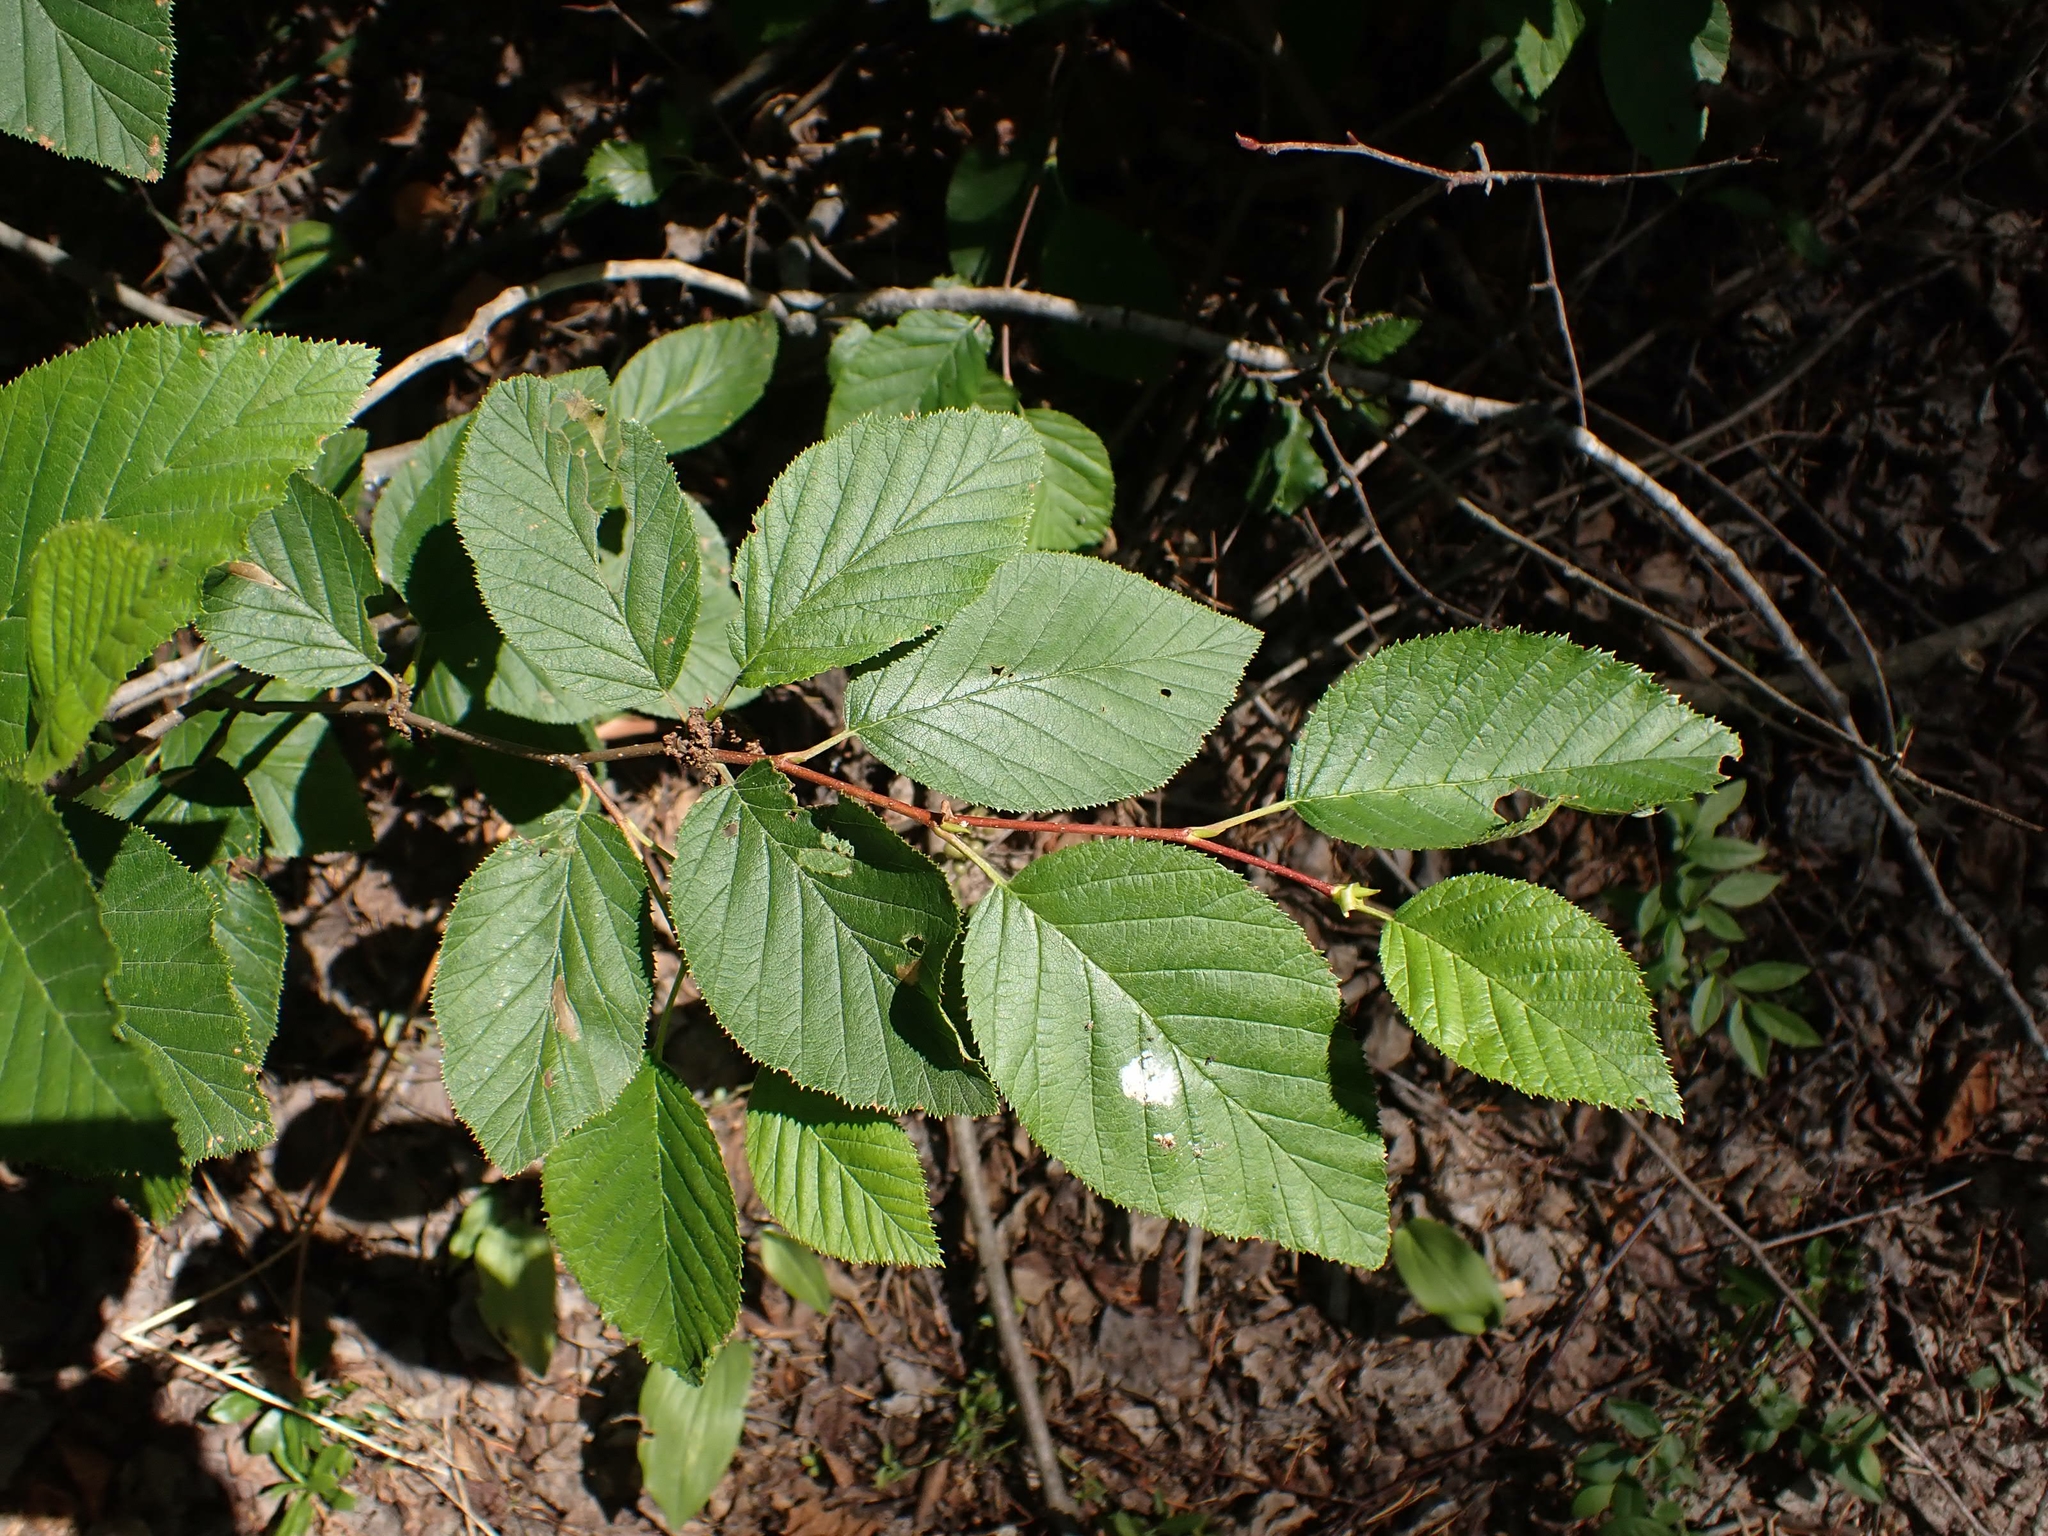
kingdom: Plantae
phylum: Tracheophyta
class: Magnoliopsida
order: Fagales
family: Betulaceae
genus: Alnus
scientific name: Alnus alnobetula
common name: Green alder
